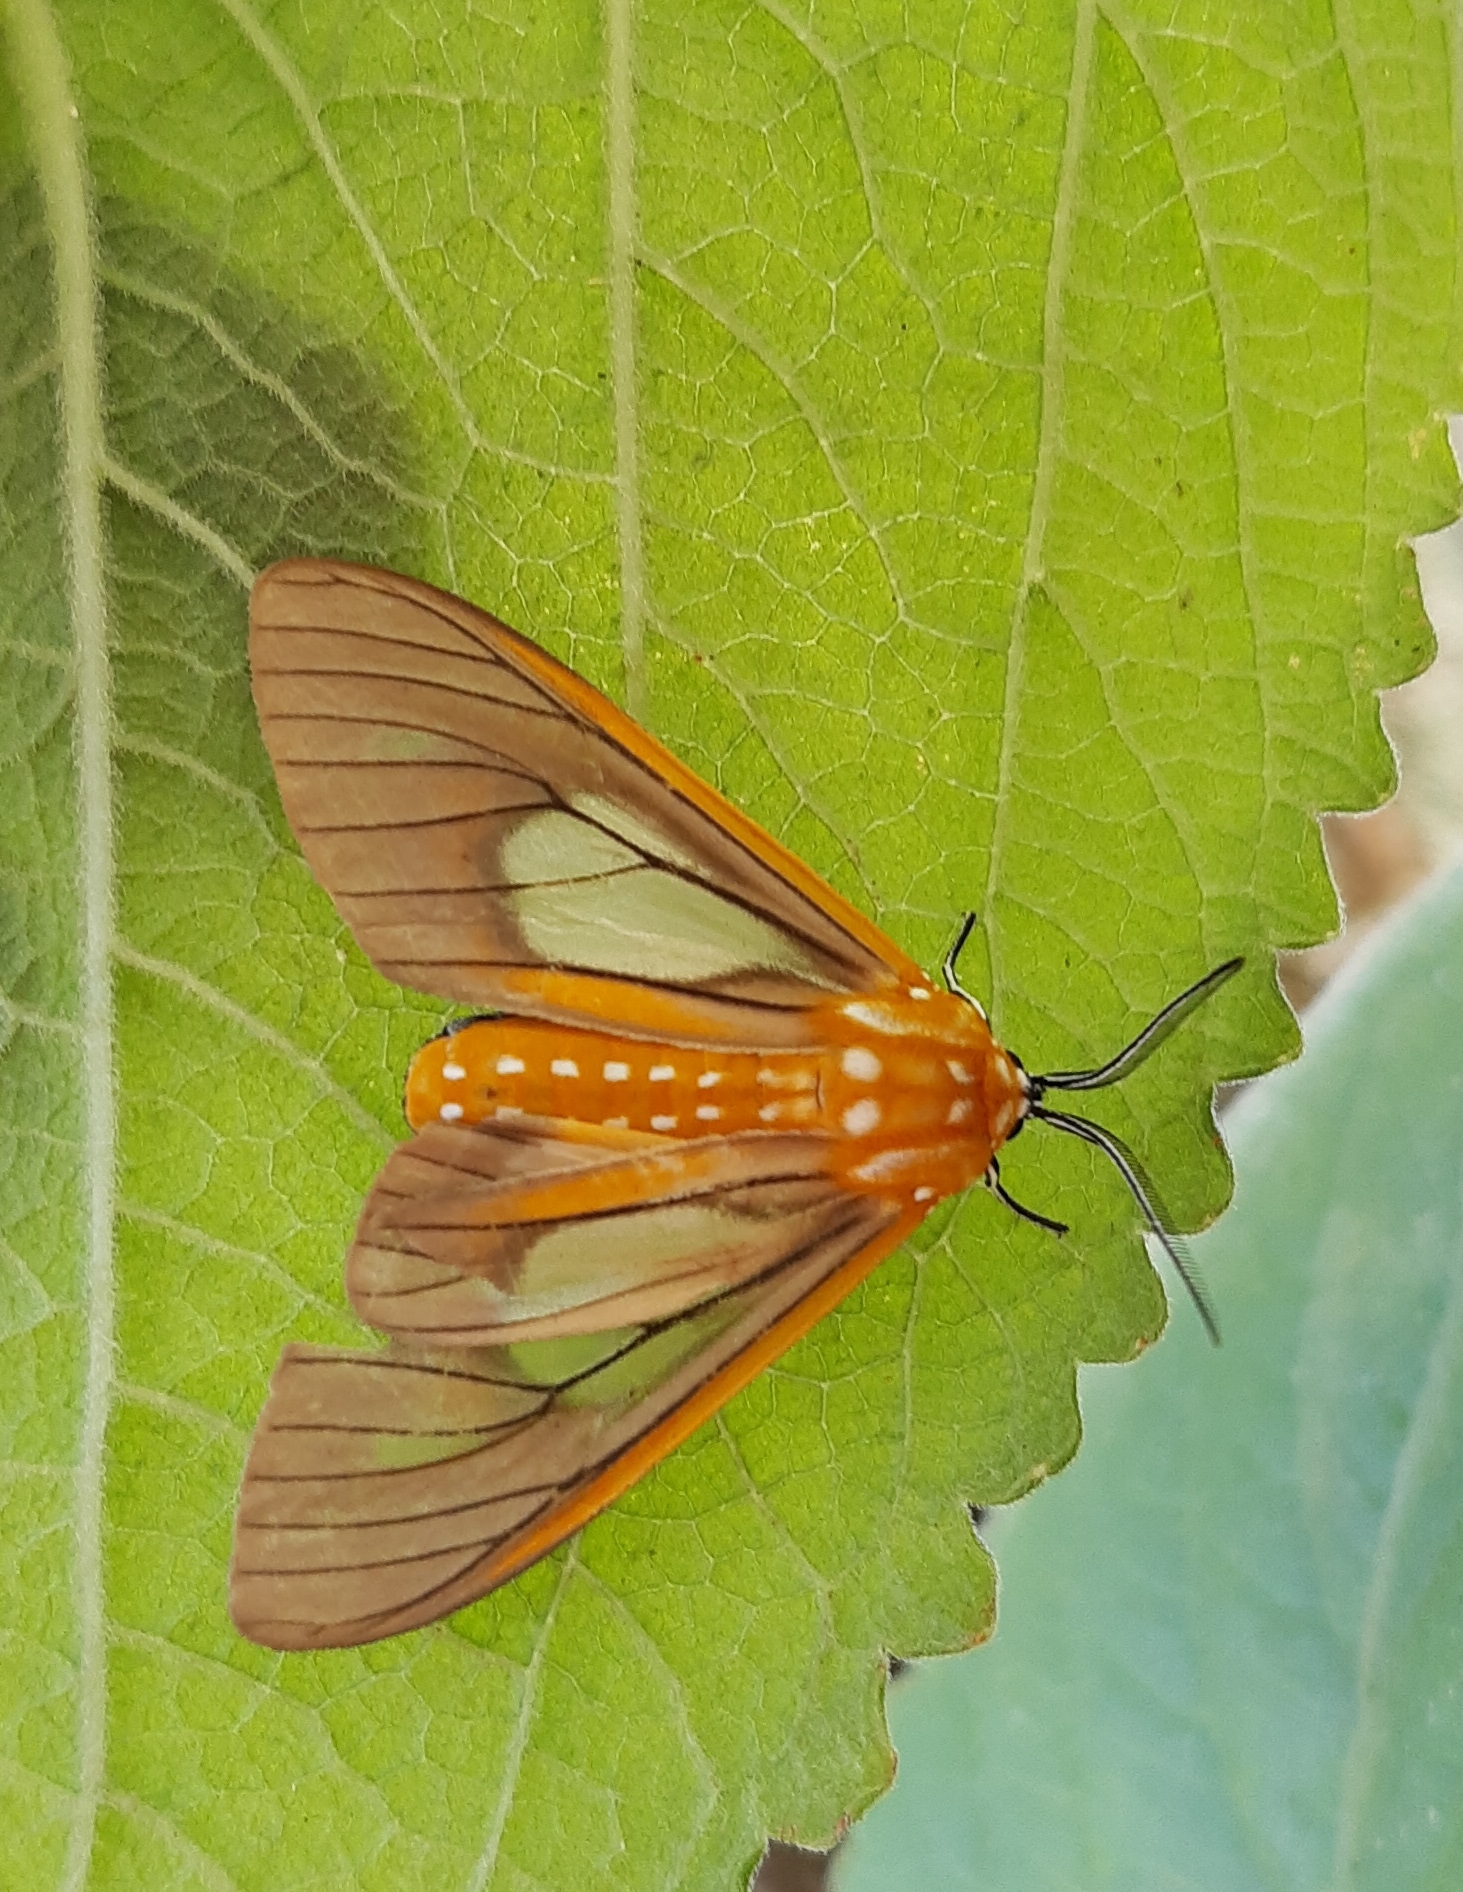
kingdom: Animalia
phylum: Arthropoda
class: Insecta
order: Lepidoptera
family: Erebidae
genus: Sthenognatha
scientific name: Sthenognatha gentilis
